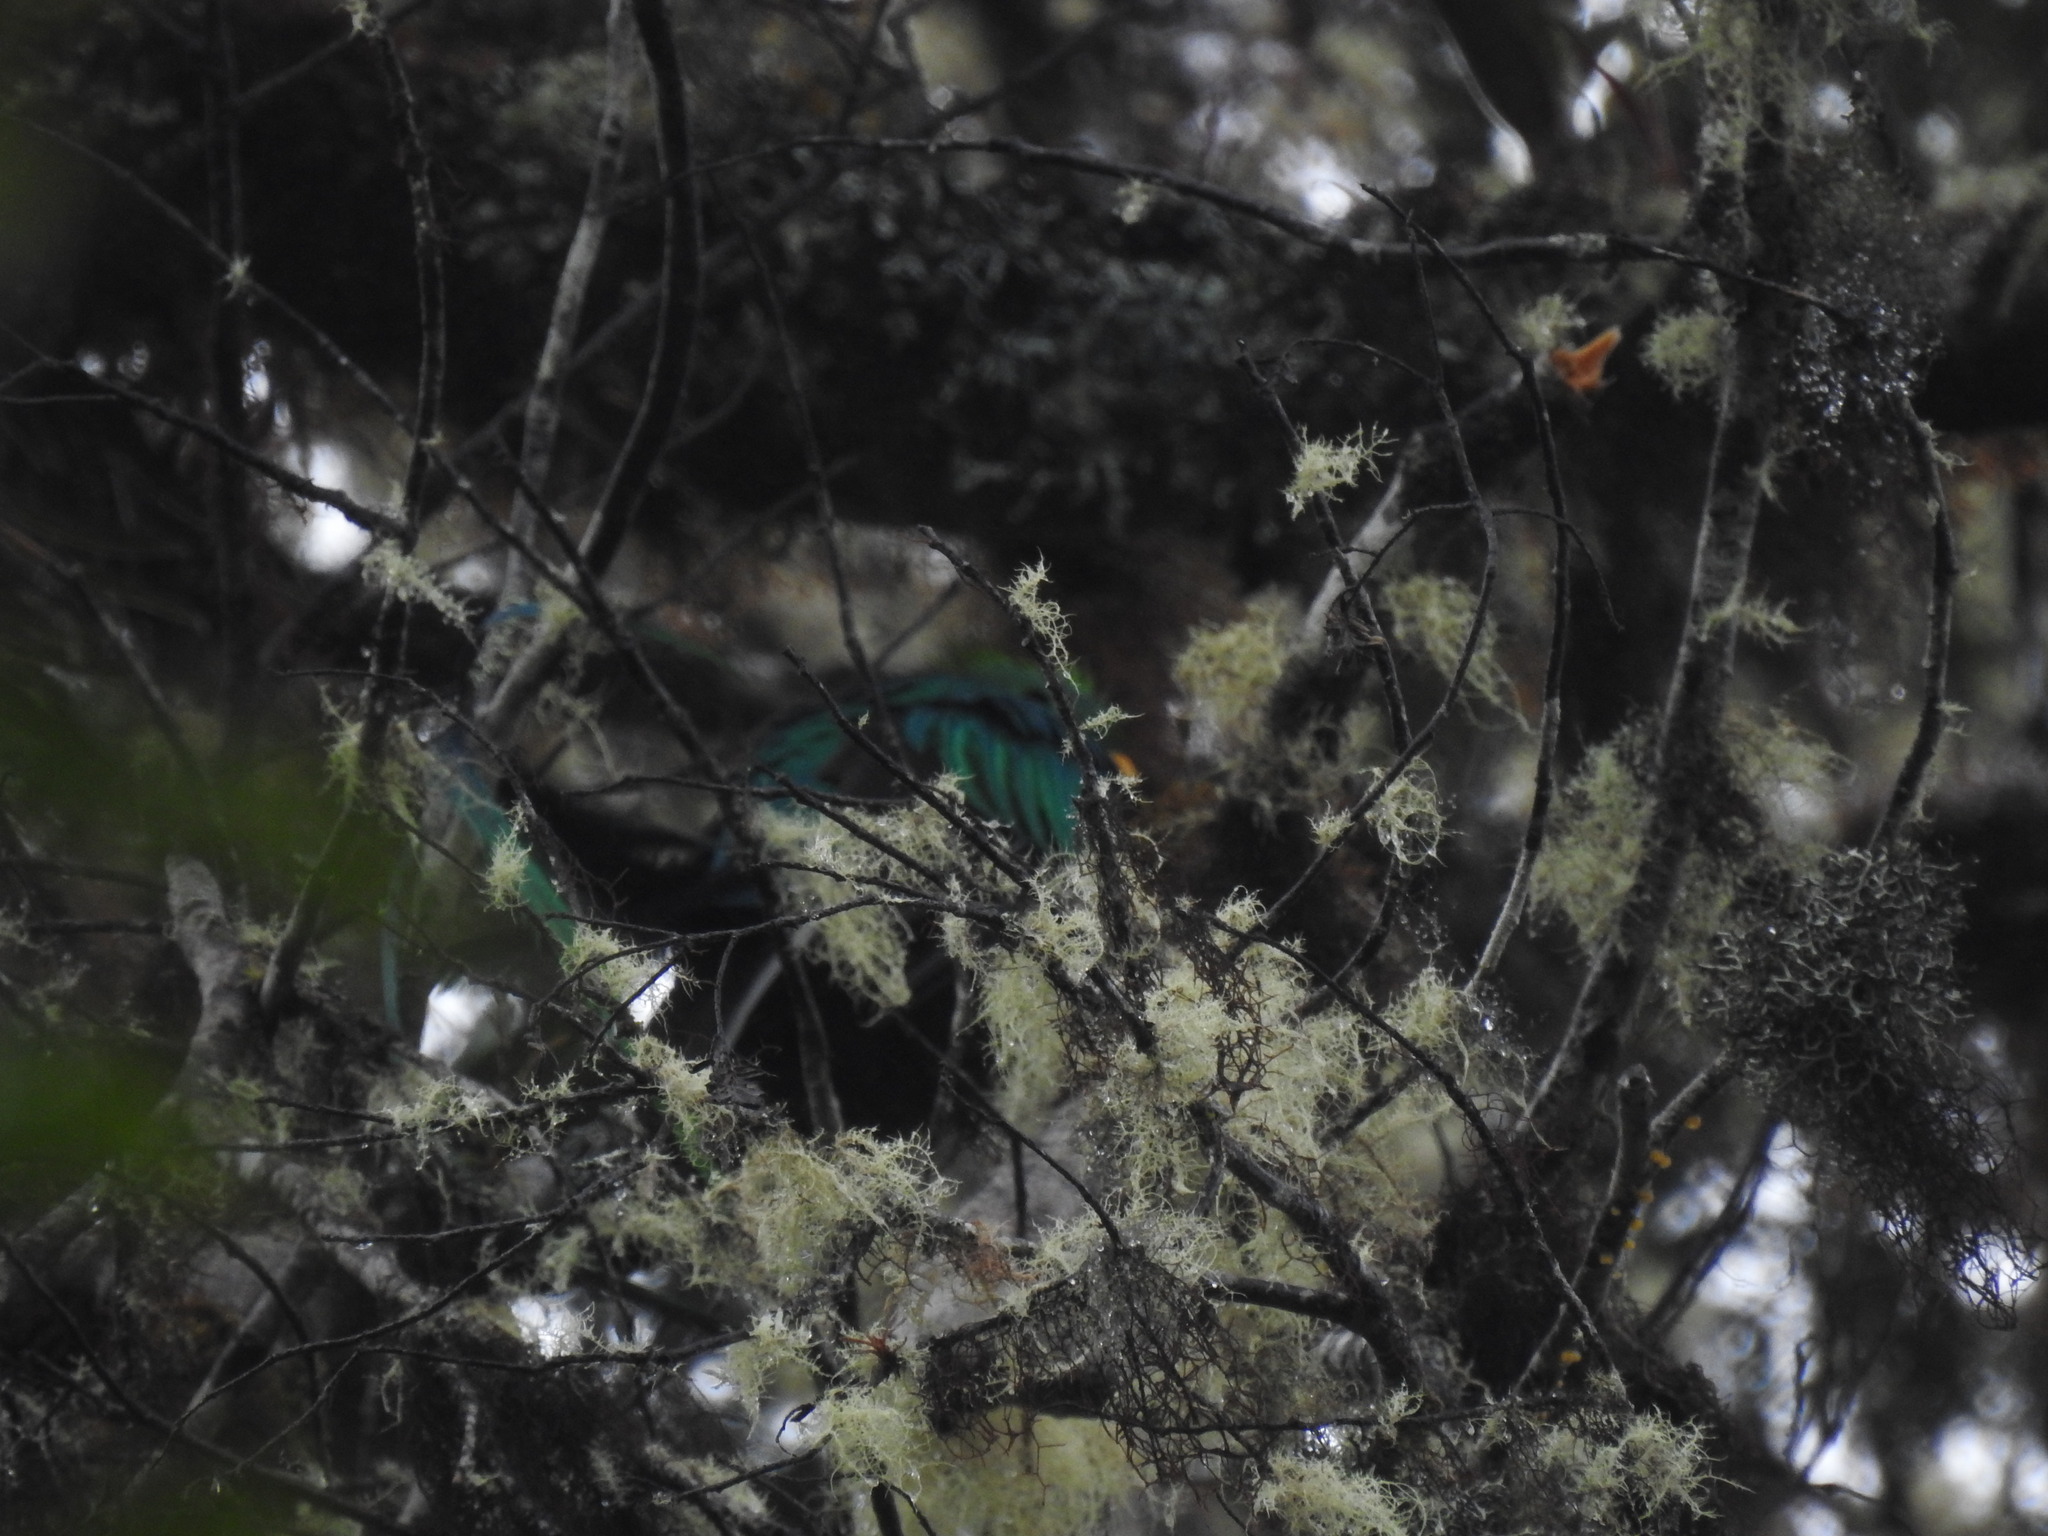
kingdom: Animalia
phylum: Chordata
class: Aves
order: Trogoniformes
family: Trogonidae
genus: Pharomachrus
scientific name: Pharomachrus mocinno
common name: Resplendent quetzal
